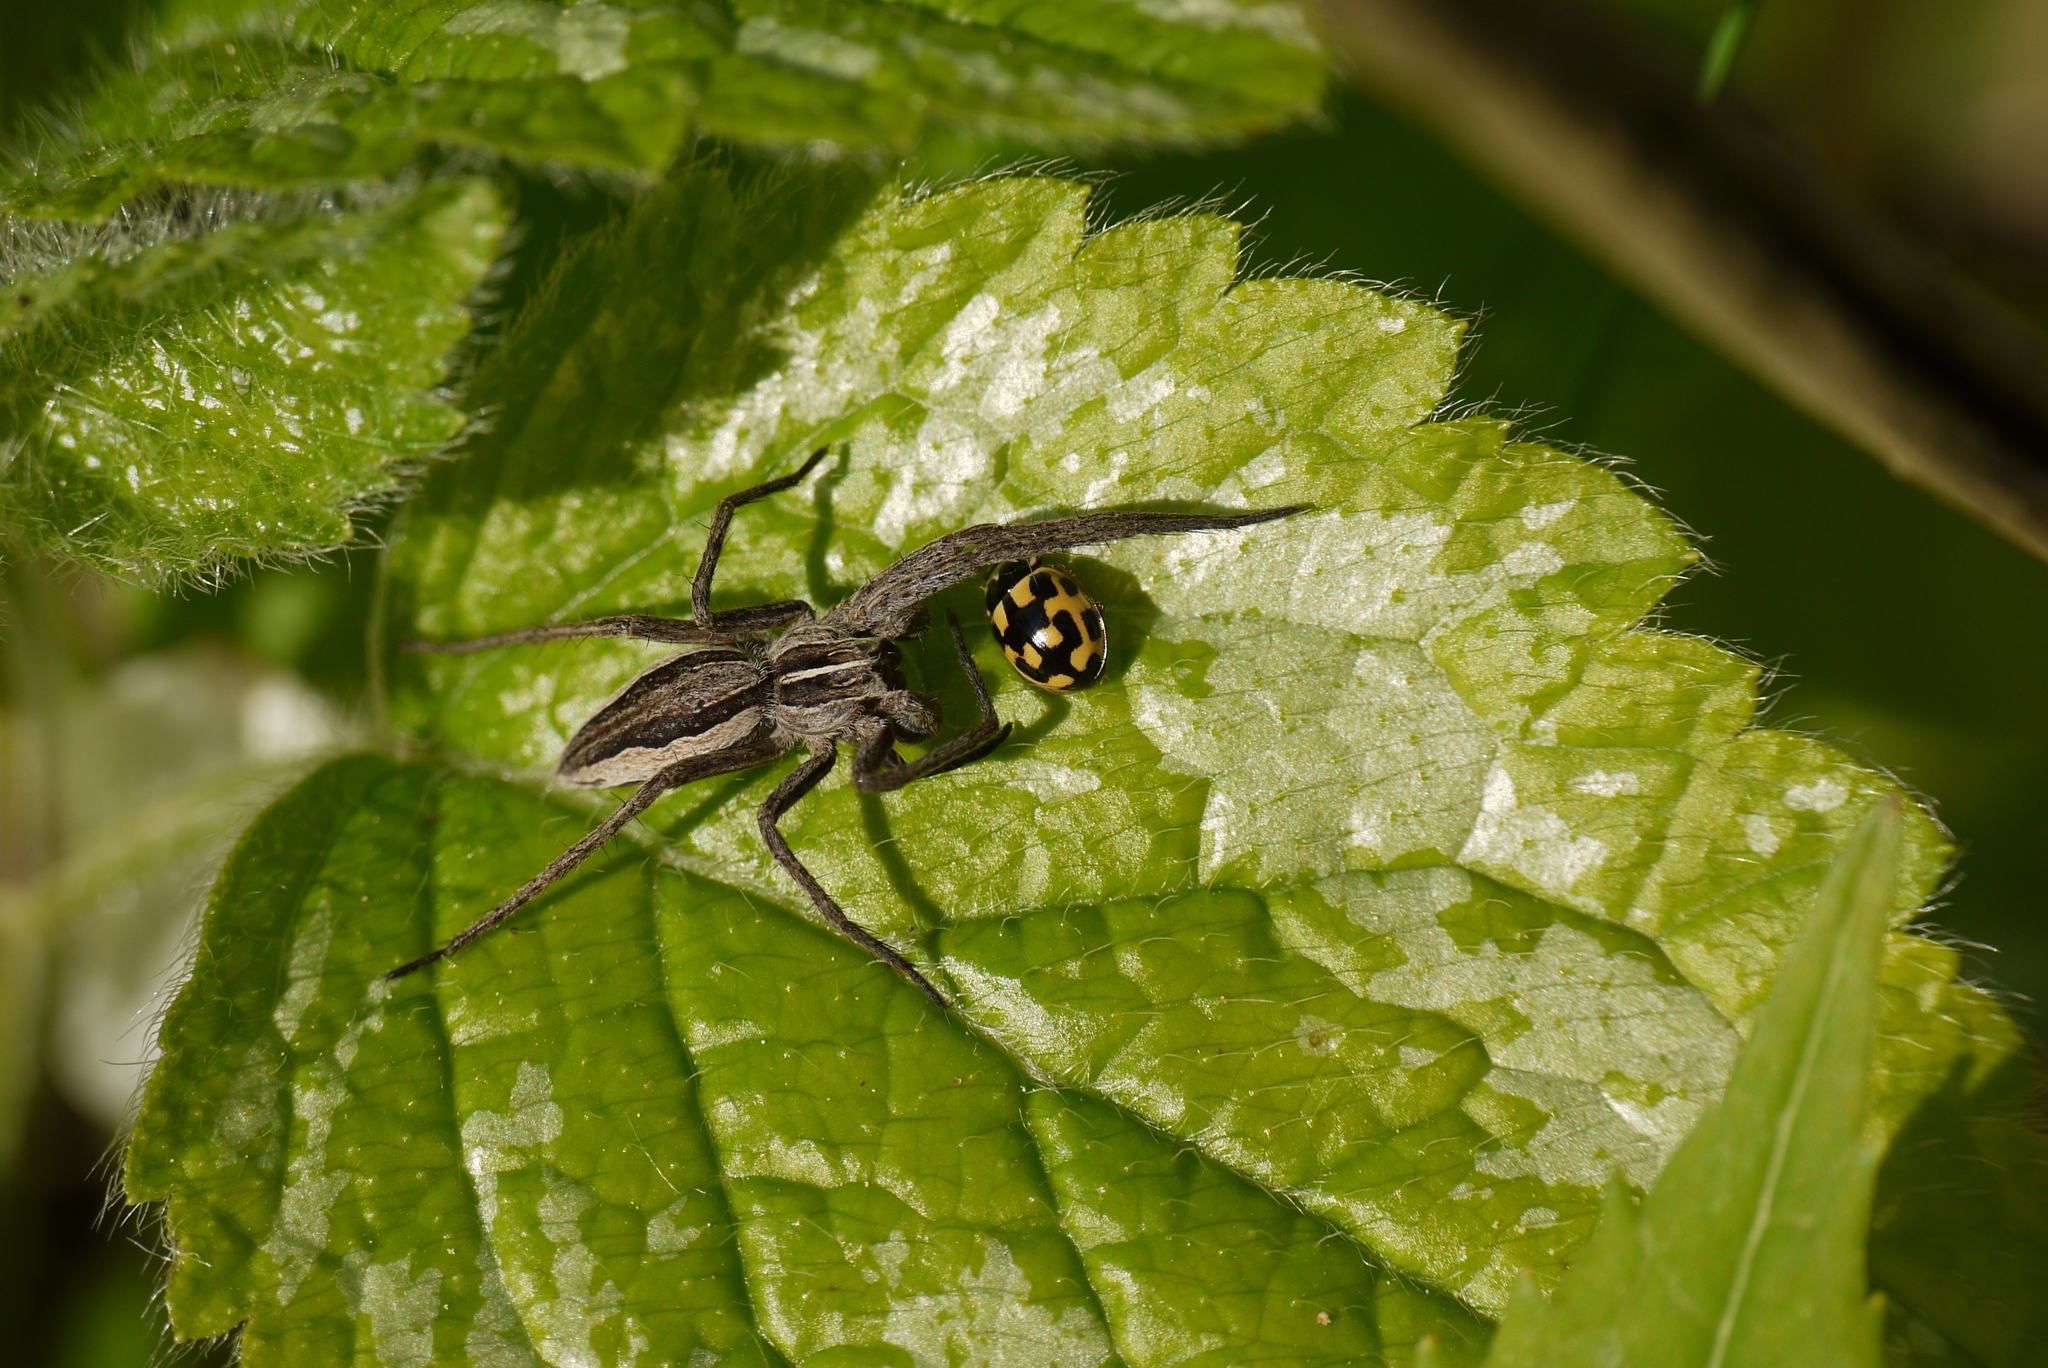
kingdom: Animalia
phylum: Arthropoda
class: Insecta
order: Coleoptera
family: Coccinellidae
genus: Propylaea
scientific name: Propylaea quatuordecimpunctata
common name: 14-spotted ladybird beetle
